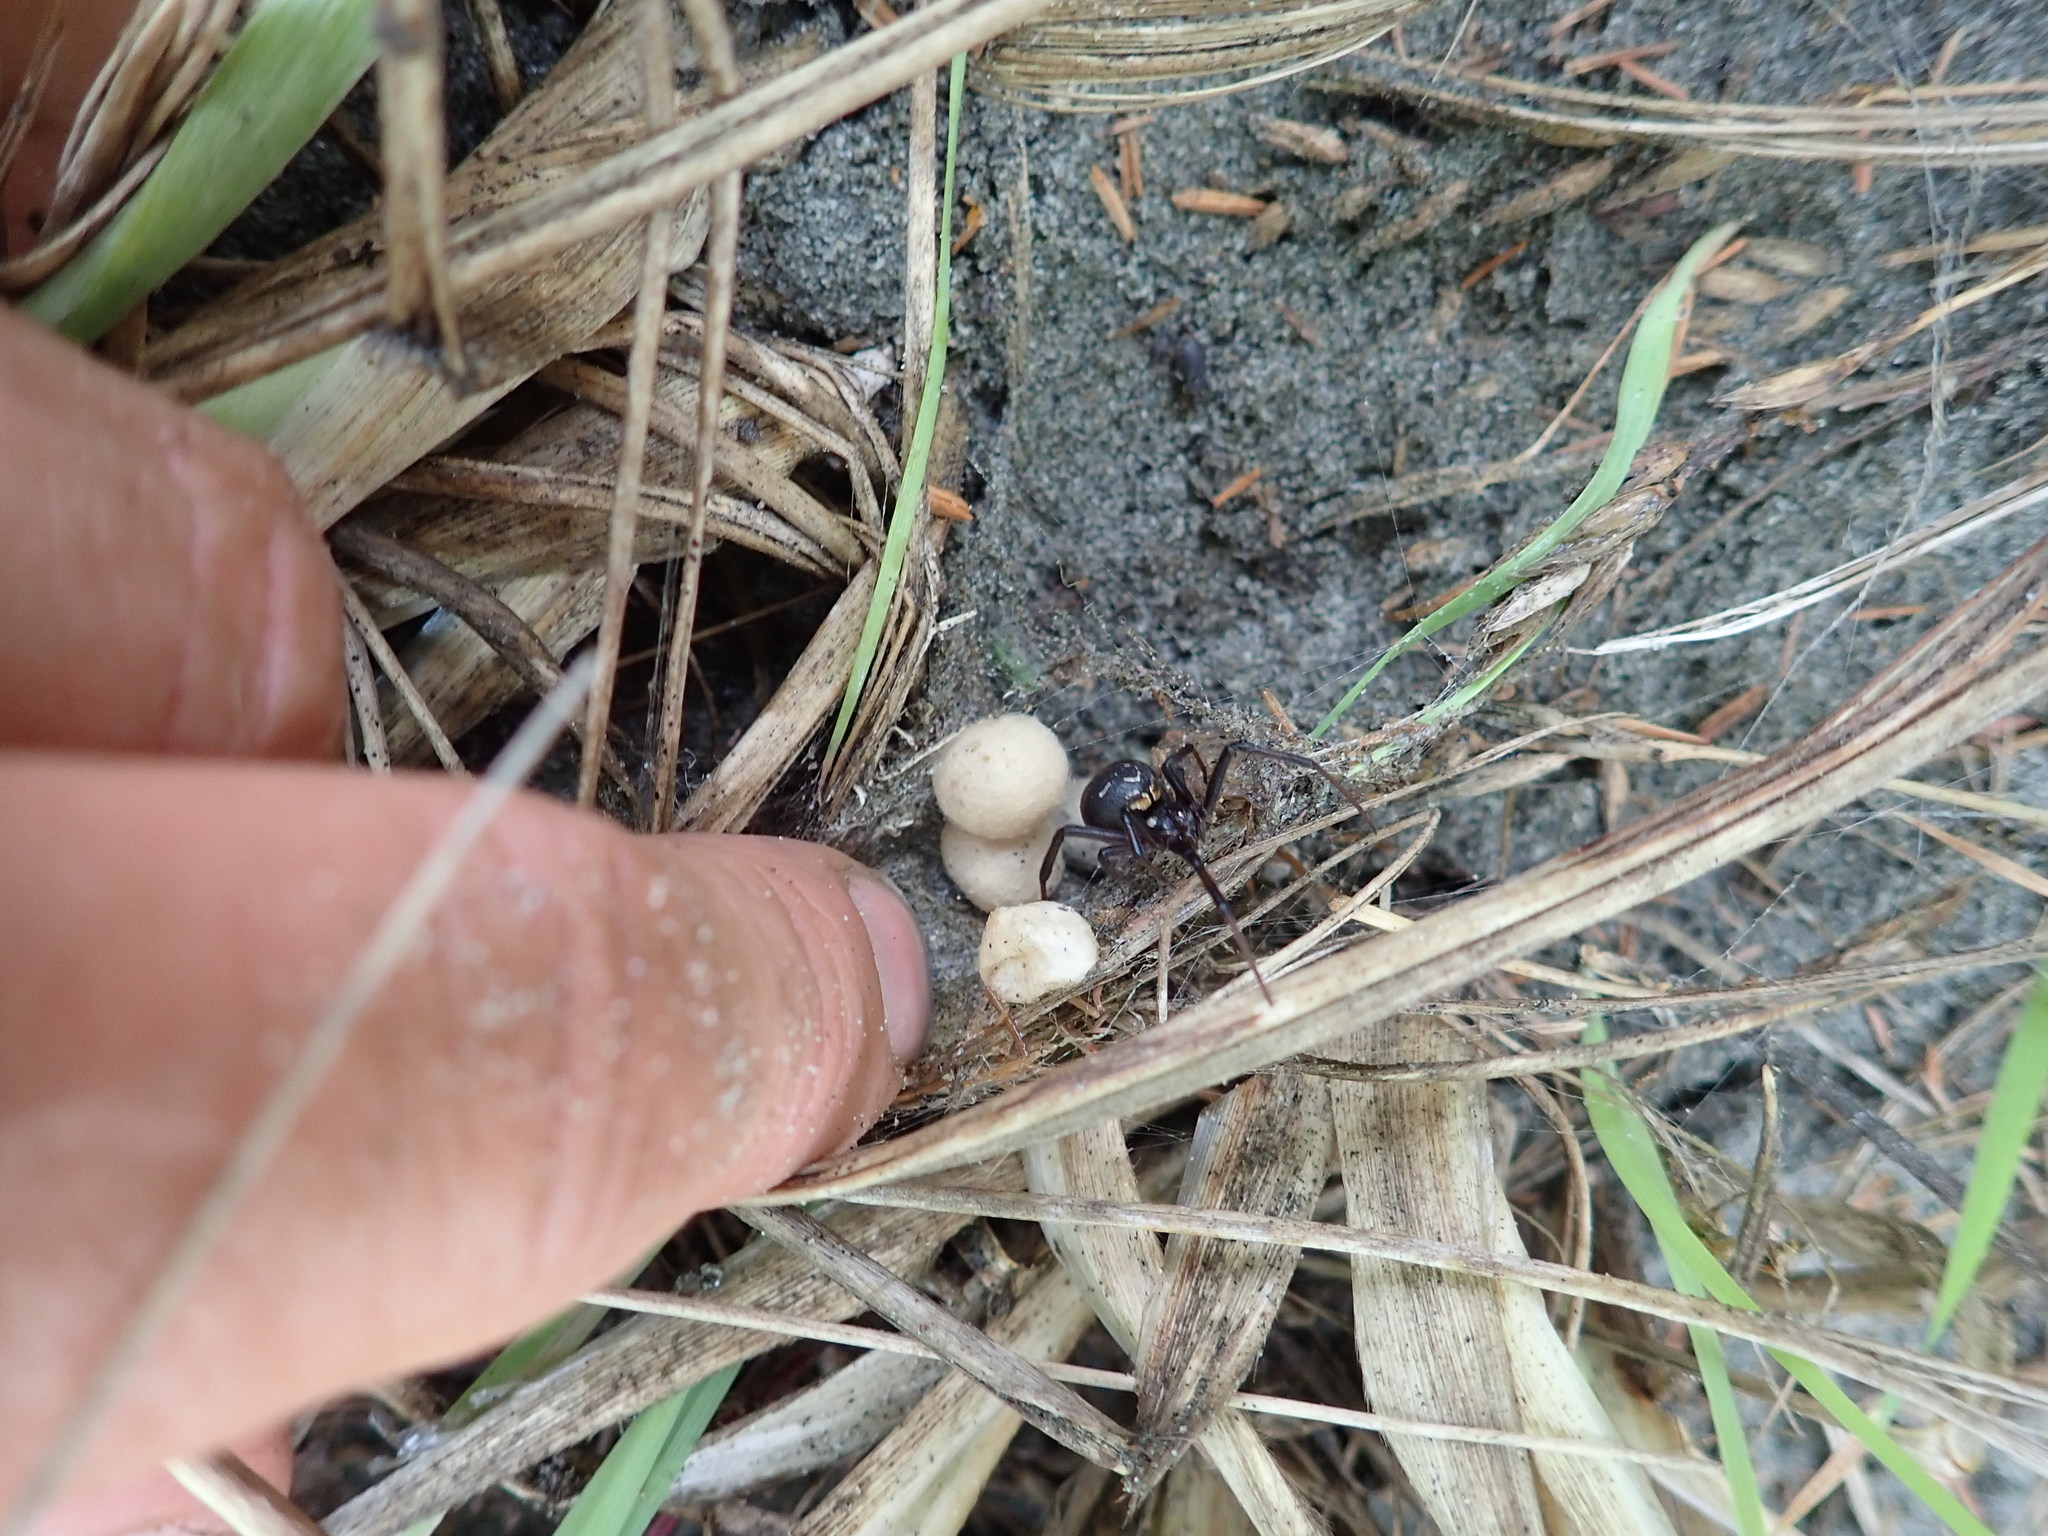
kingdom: Animalia
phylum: Arthropoda
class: Arachnida
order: Araneae
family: Theridiidae
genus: Latrodectus
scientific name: Latrodectus katipo
